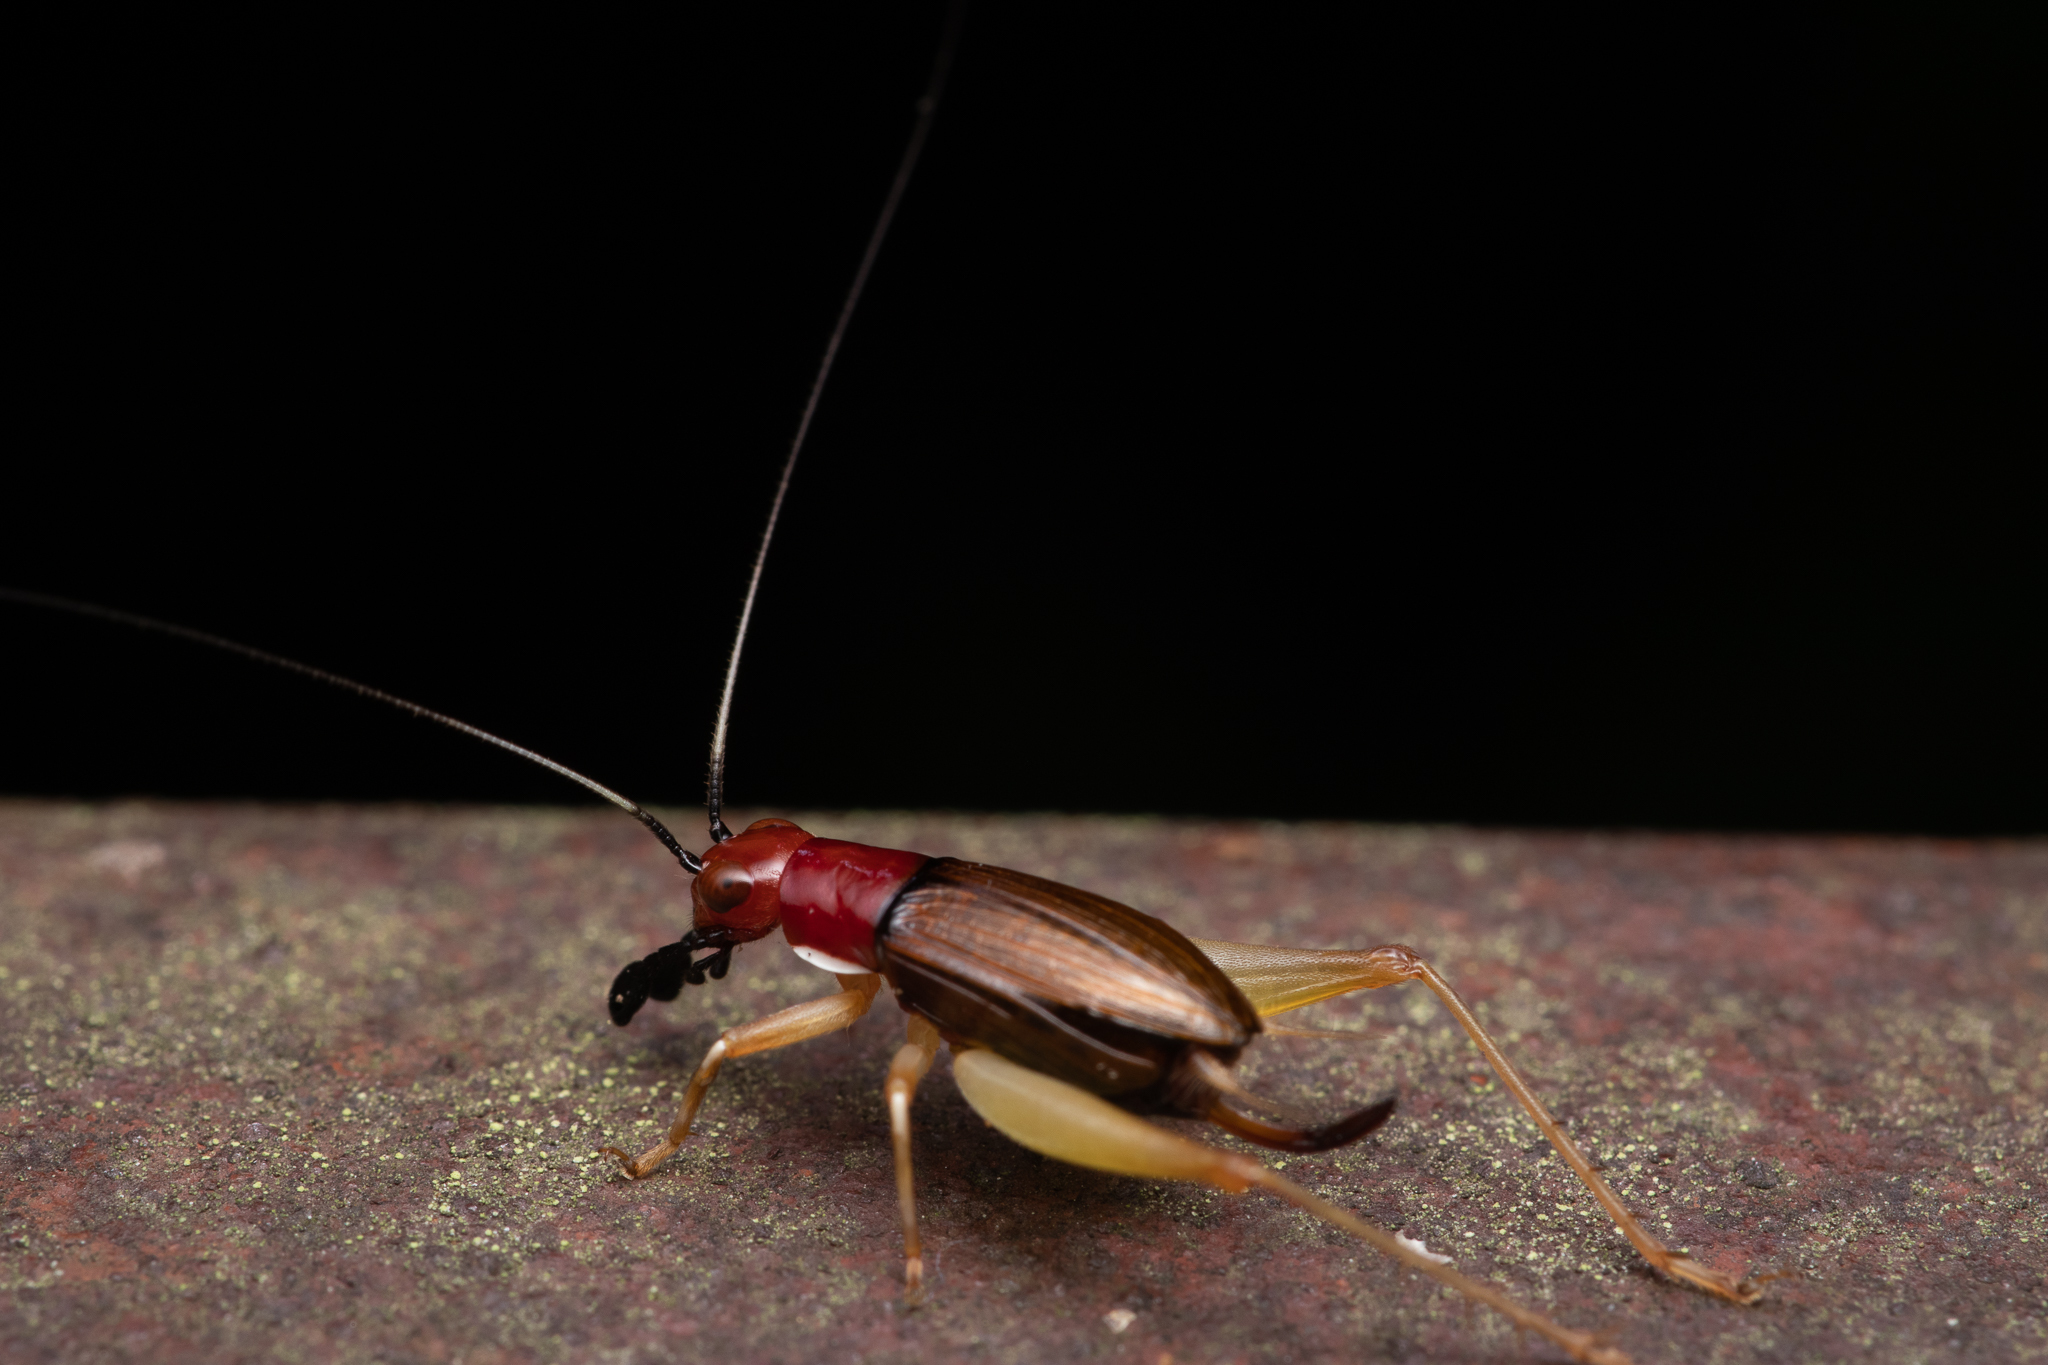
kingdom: Animalia
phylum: Arthropoda
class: Insecta
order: Orthoptera
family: Trigonidiidae
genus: Phyllopalpus
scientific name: Phyllopalpus pulchellus
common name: Handsome trig
